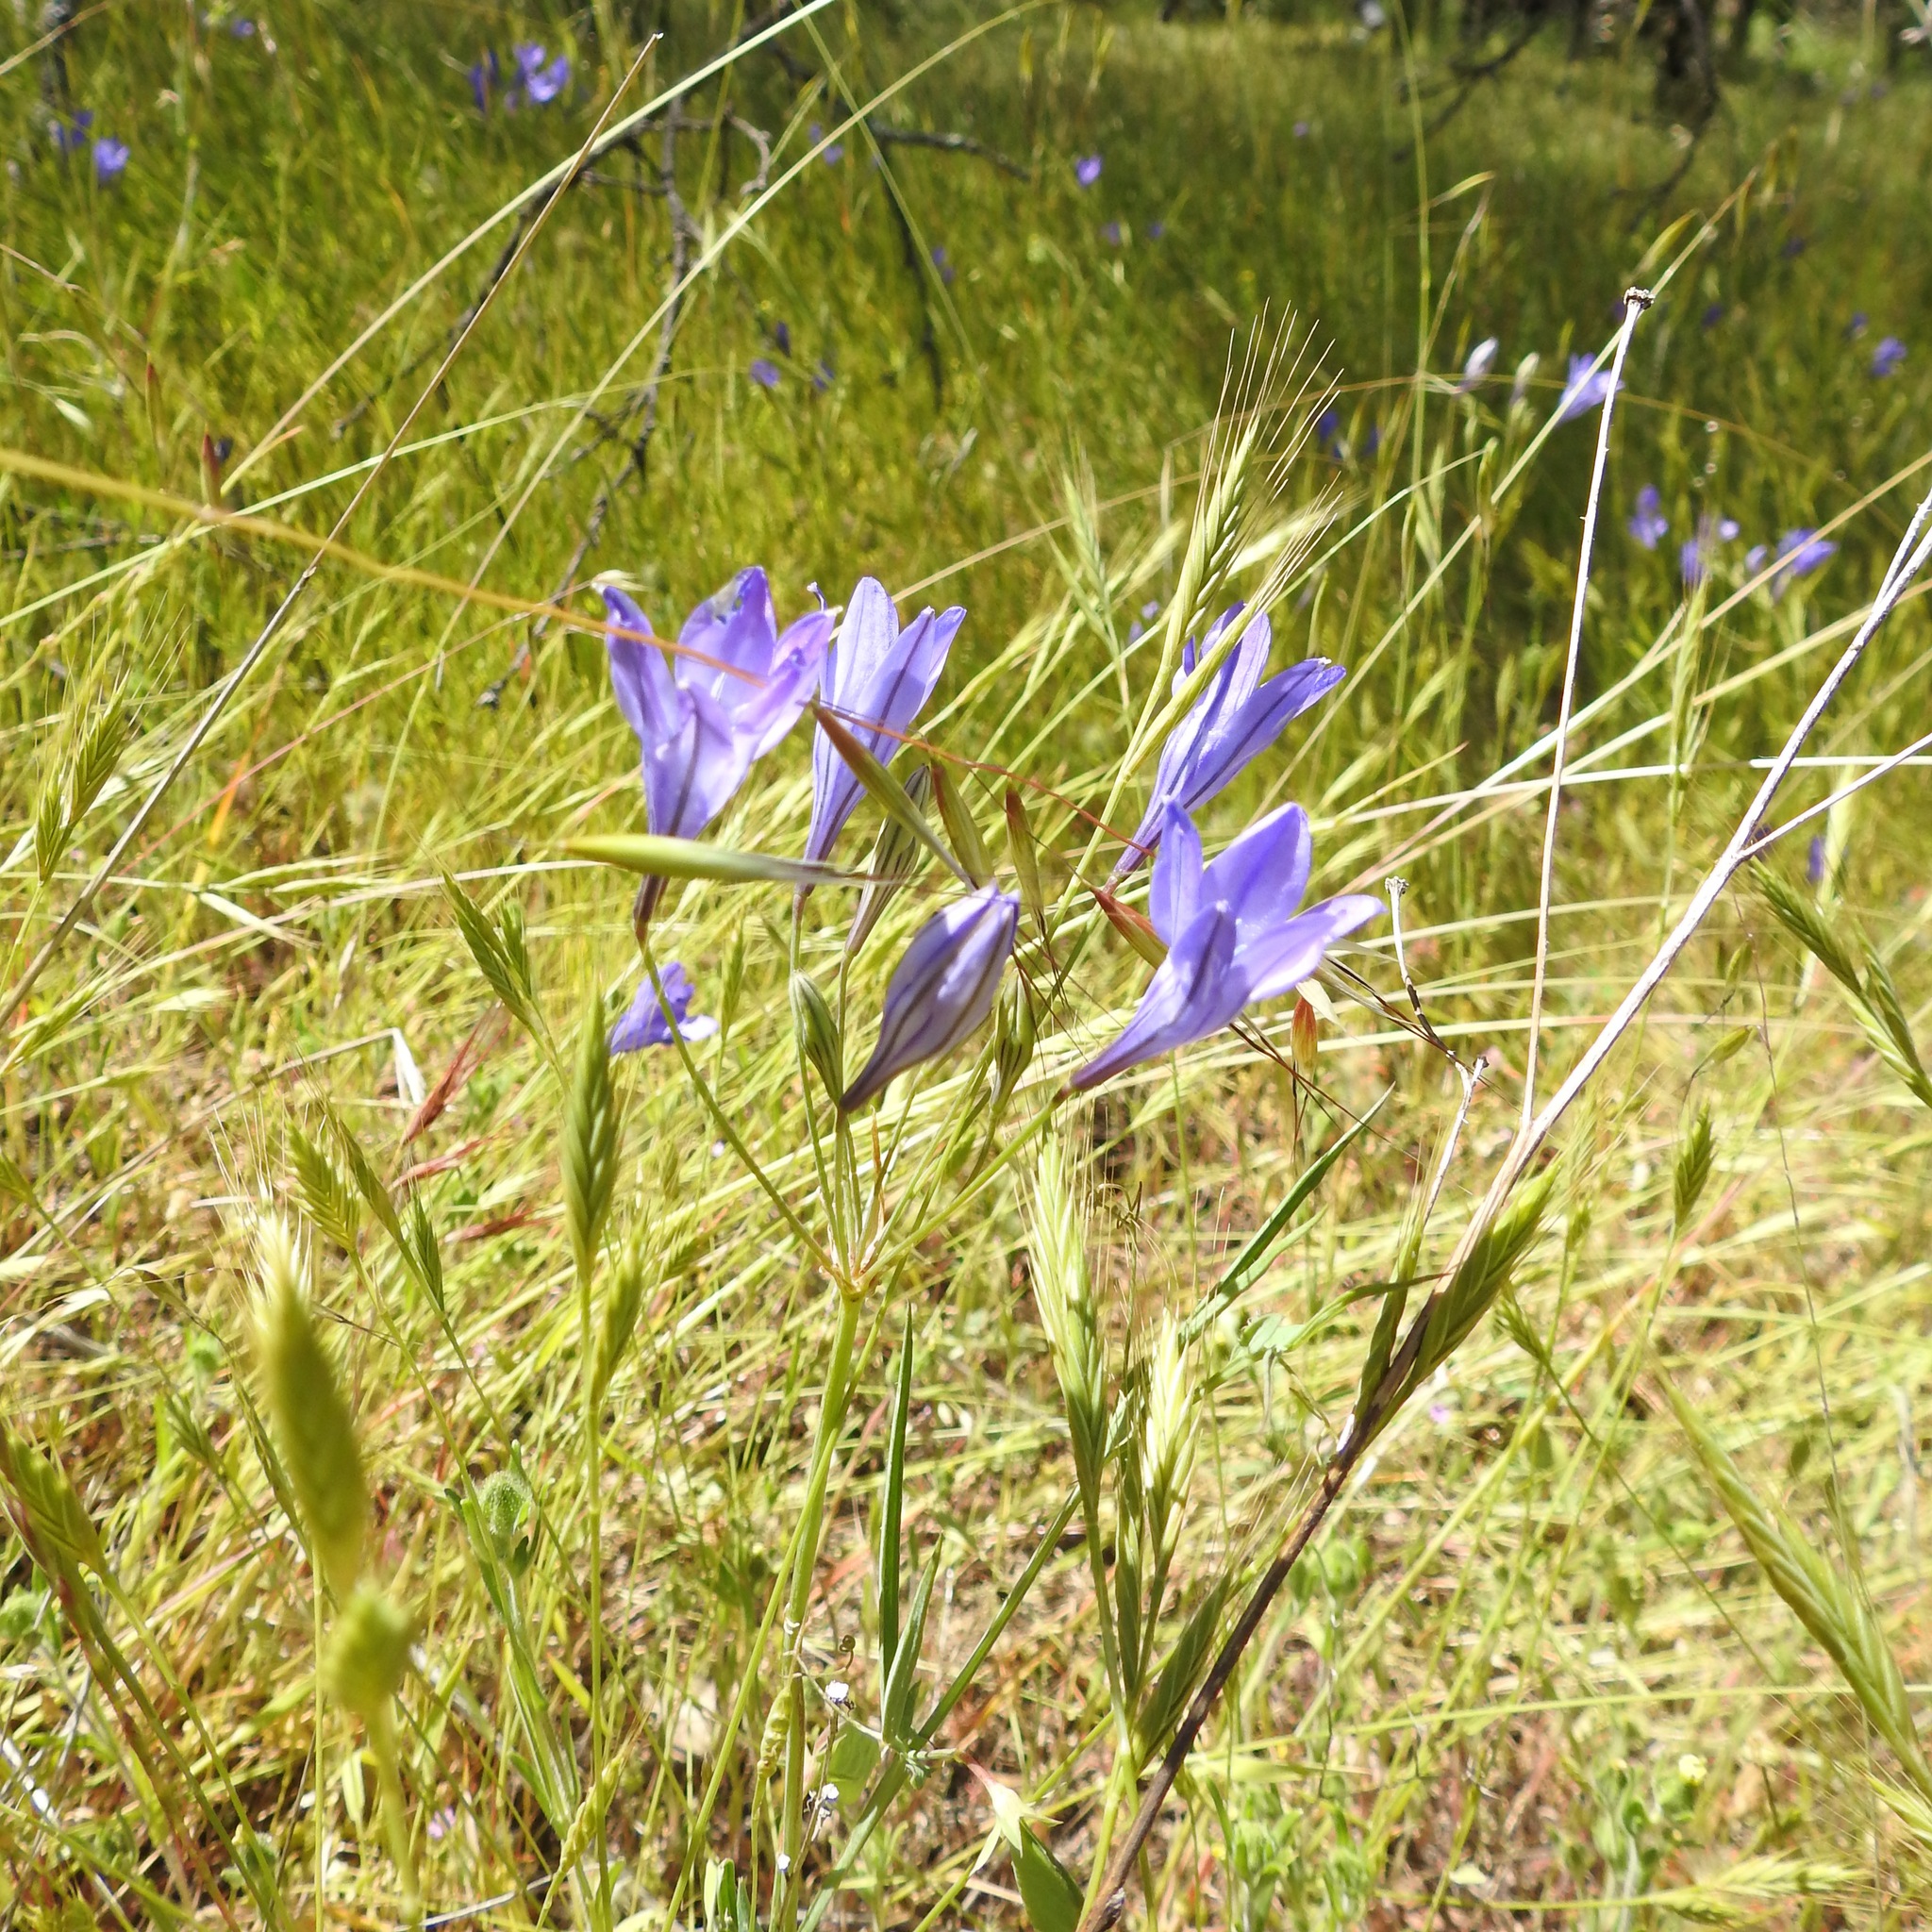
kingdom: Plantae
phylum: Tracheophyta
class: Liliopsida
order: Asparagales
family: Asparagaceae
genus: Triteleia
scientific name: Triteleia laxa
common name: Triplet-lily
